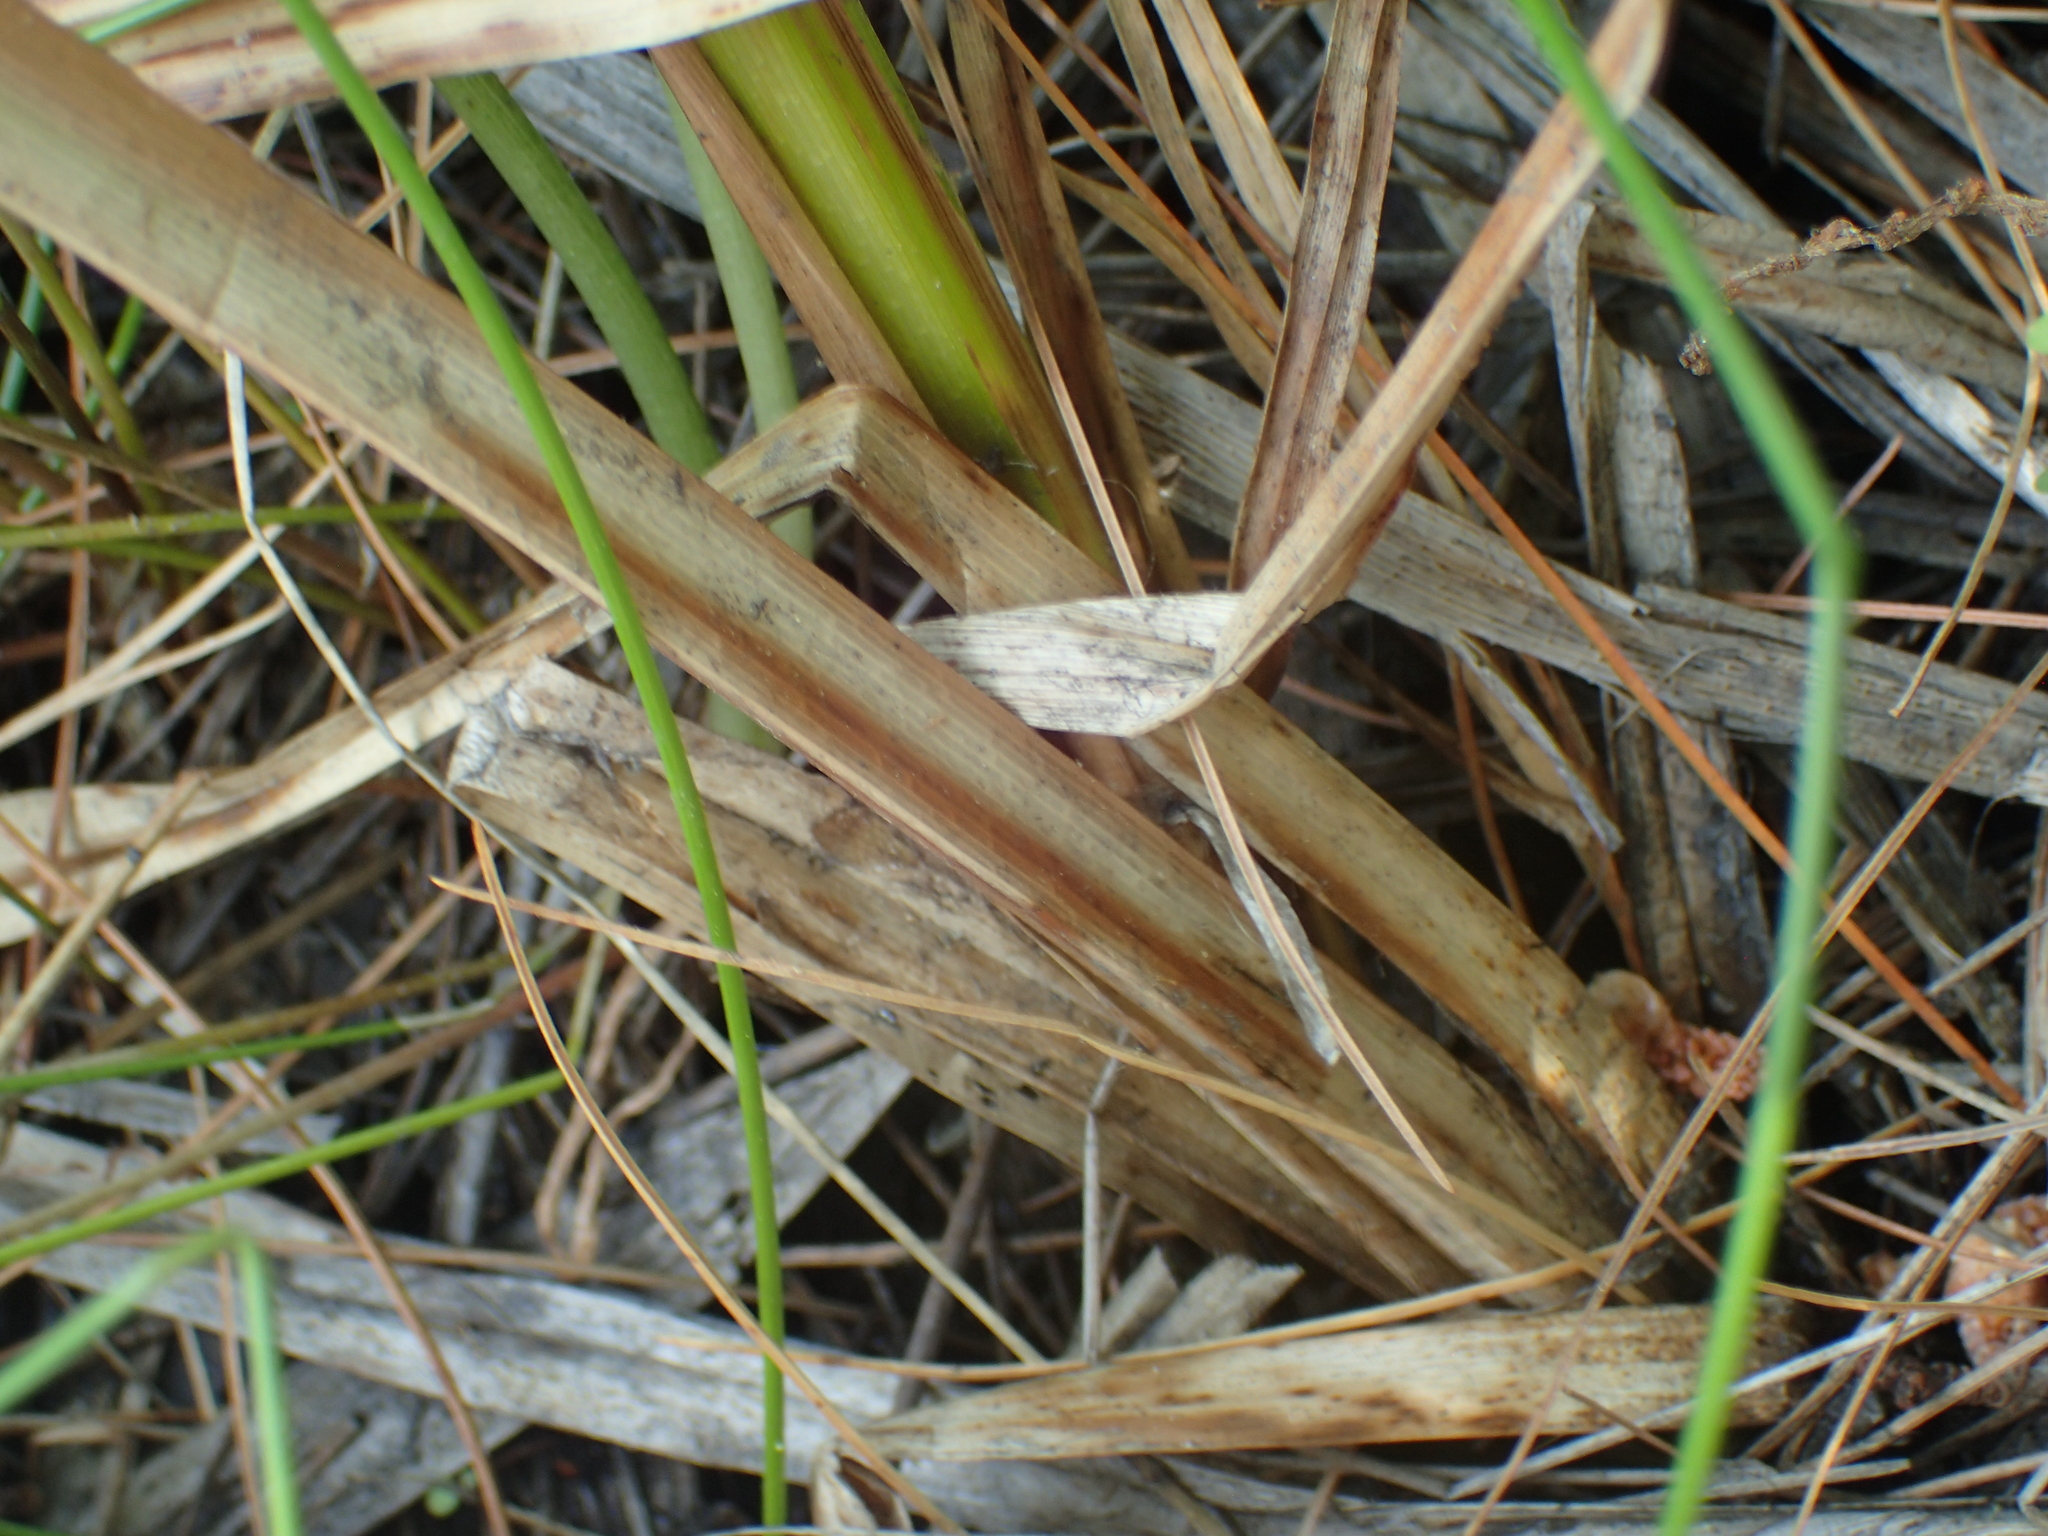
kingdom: Plantae
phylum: Tracheophyta
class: Liliopsida
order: Poales
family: Cyperaceae
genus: Carex
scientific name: Carex comosa
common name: Bristly sedge
